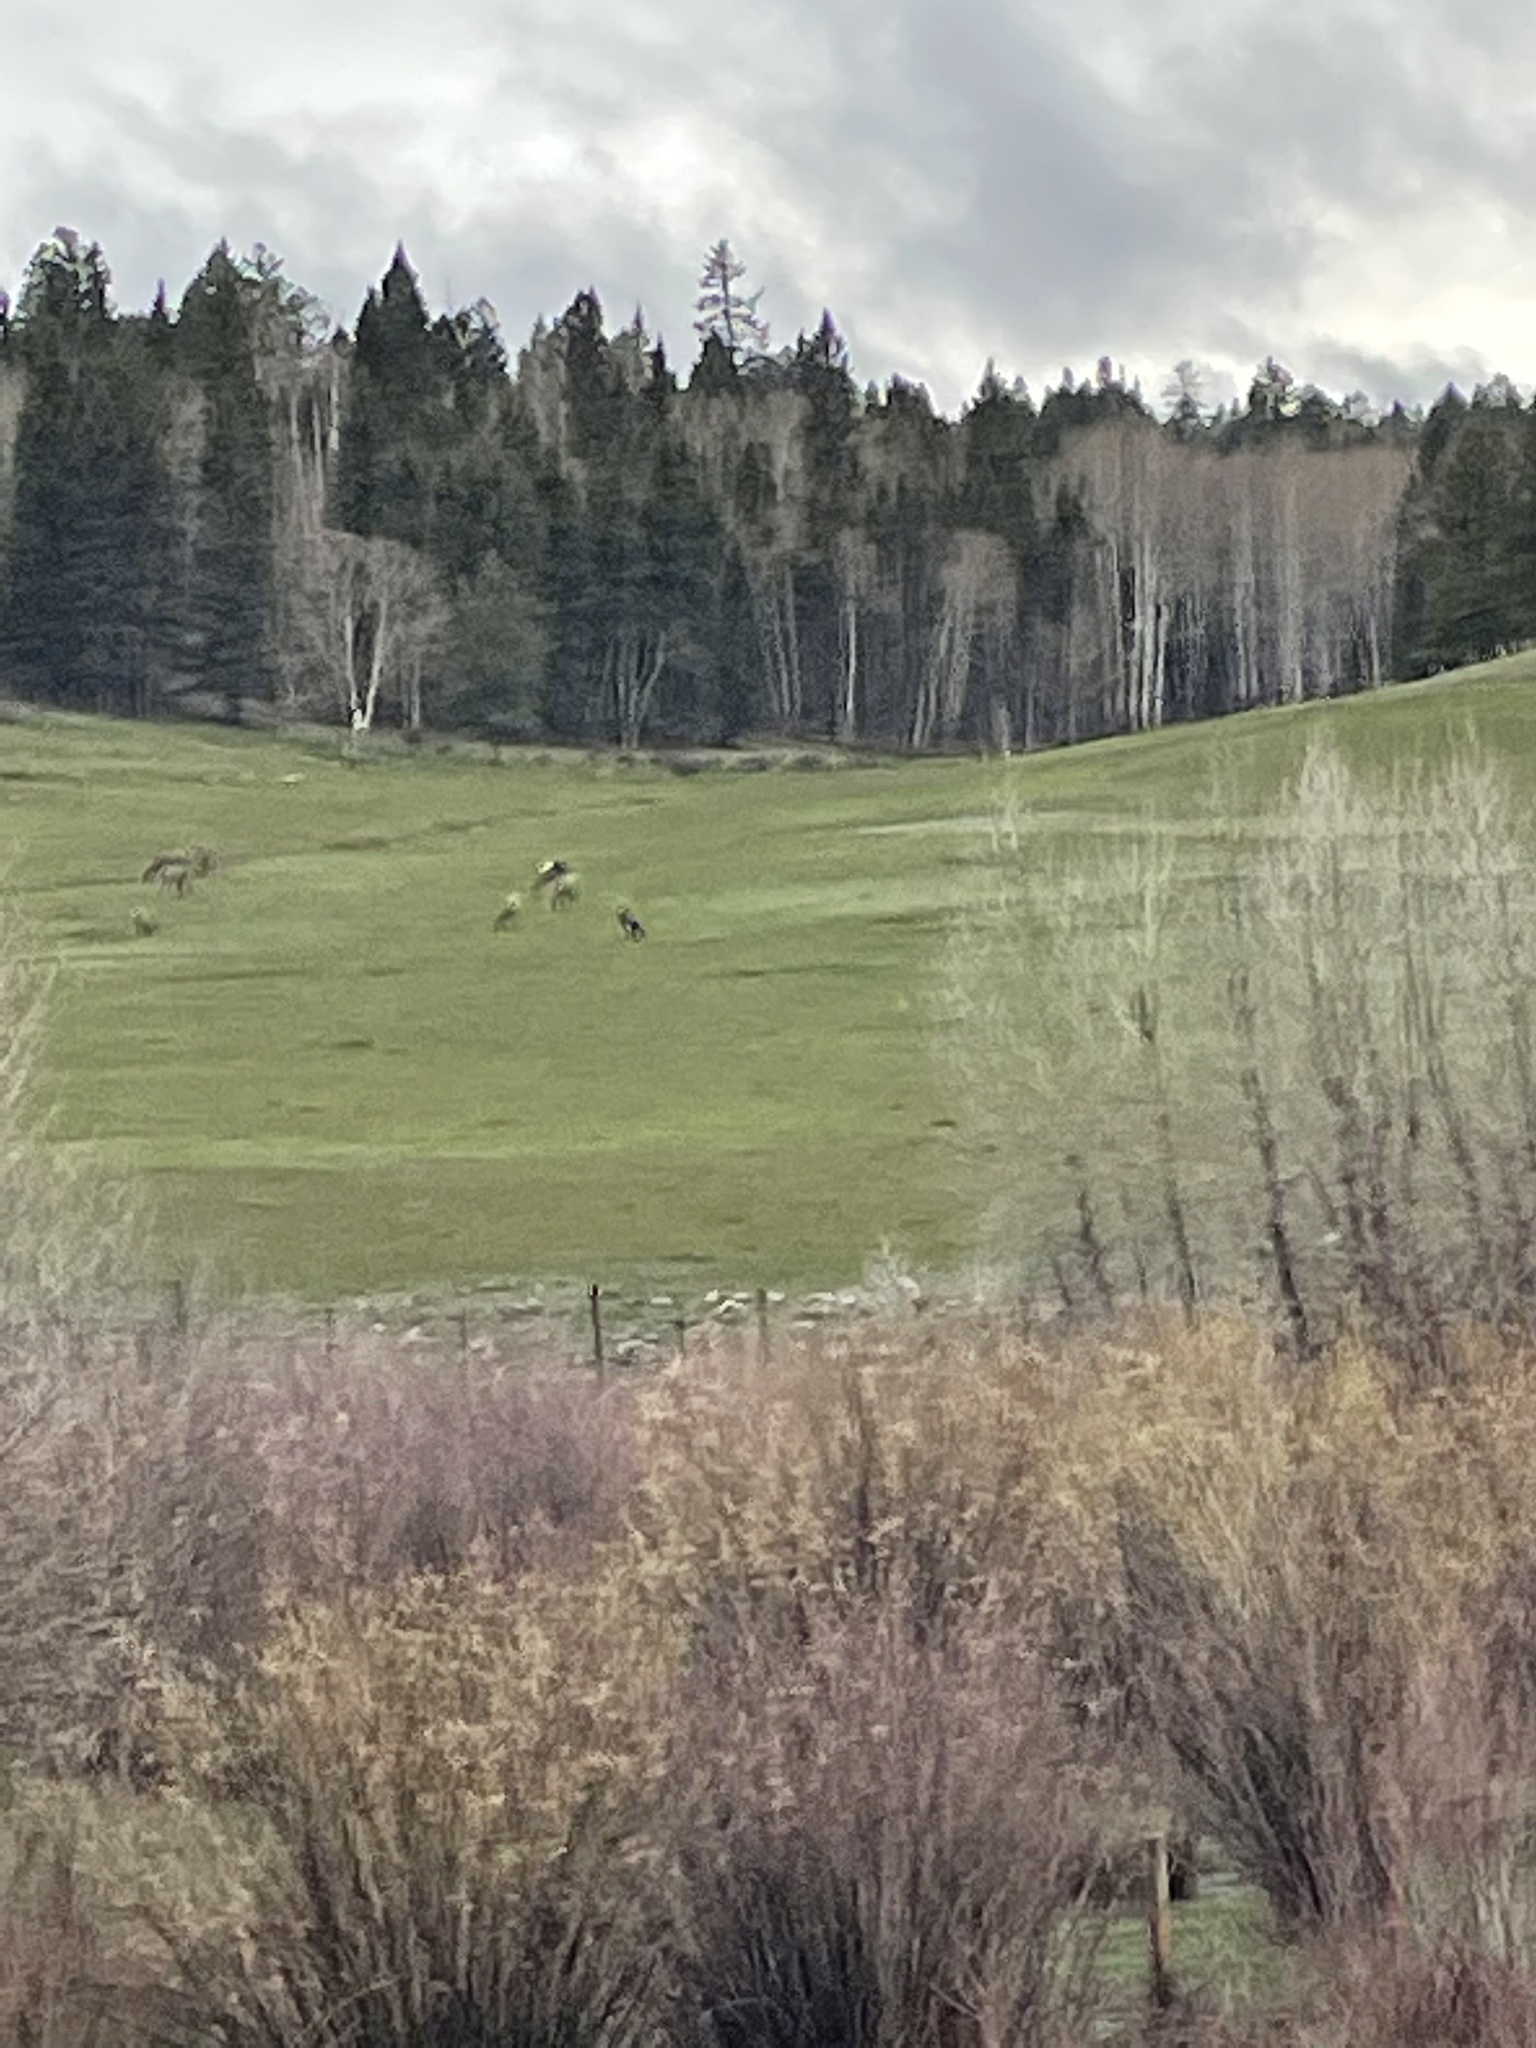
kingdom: Animalia
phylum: Chordata
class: Mammalia
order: Artiodactyla
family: Cervidae
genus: Cervus
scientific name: Cervus elaphus
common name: Red deer
